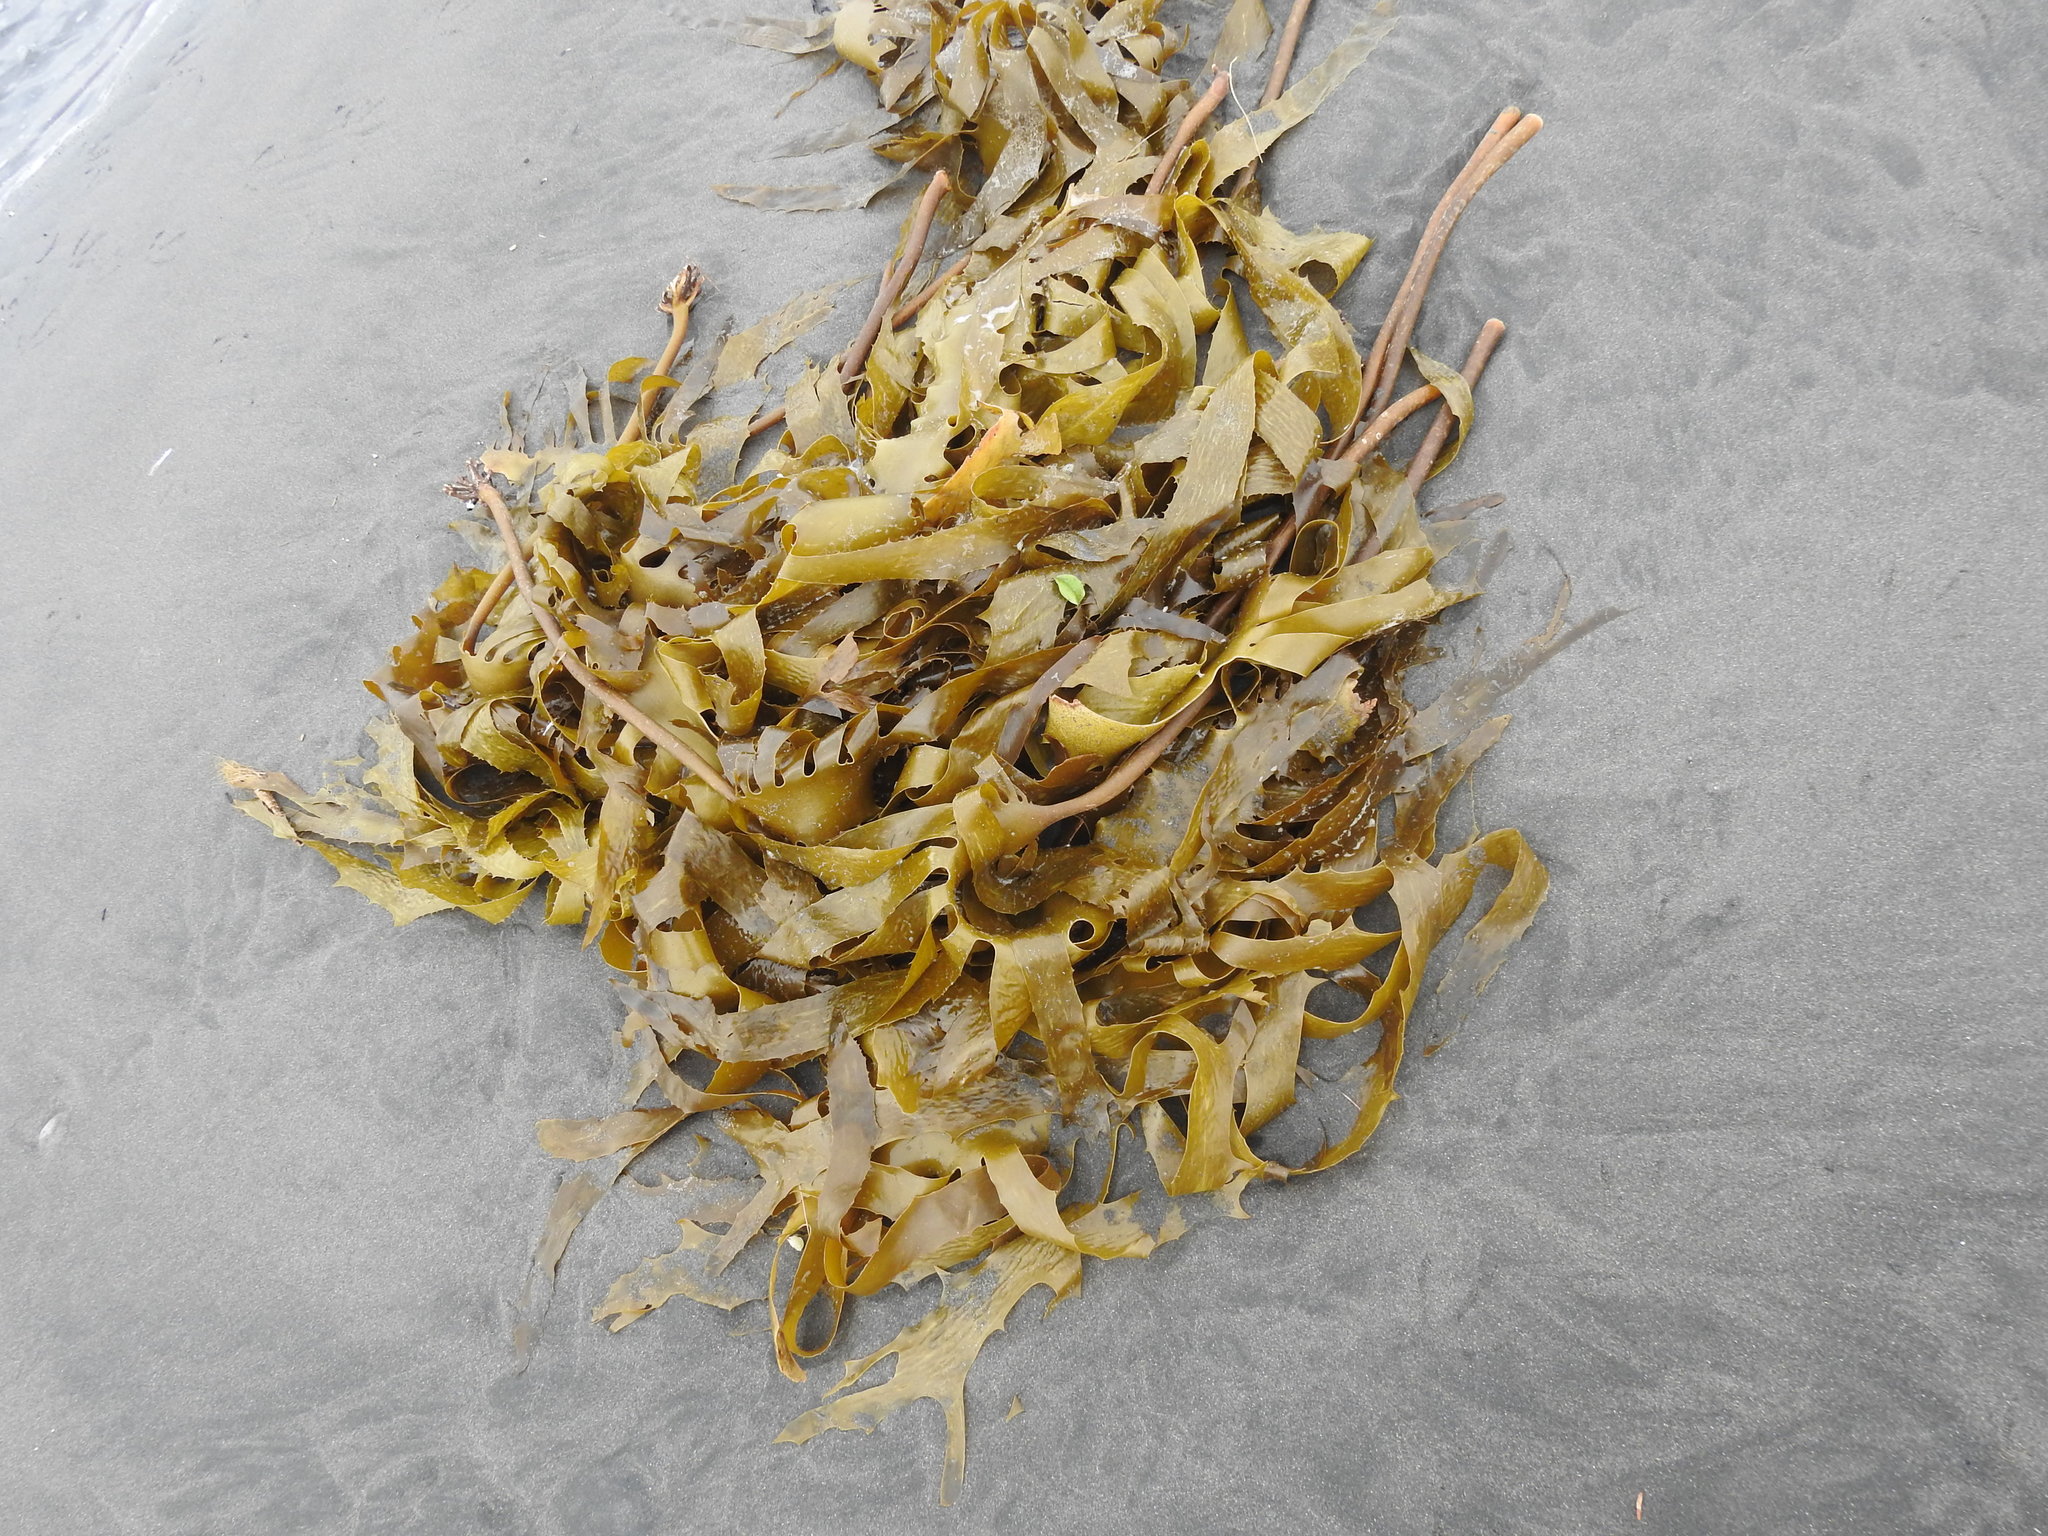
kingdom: Chromista
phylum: Ochrophyta
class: Phaeophyceae
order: Laminariales
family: Lessoniaceae
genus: Ecklonia
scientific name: Ecklonia radiata
